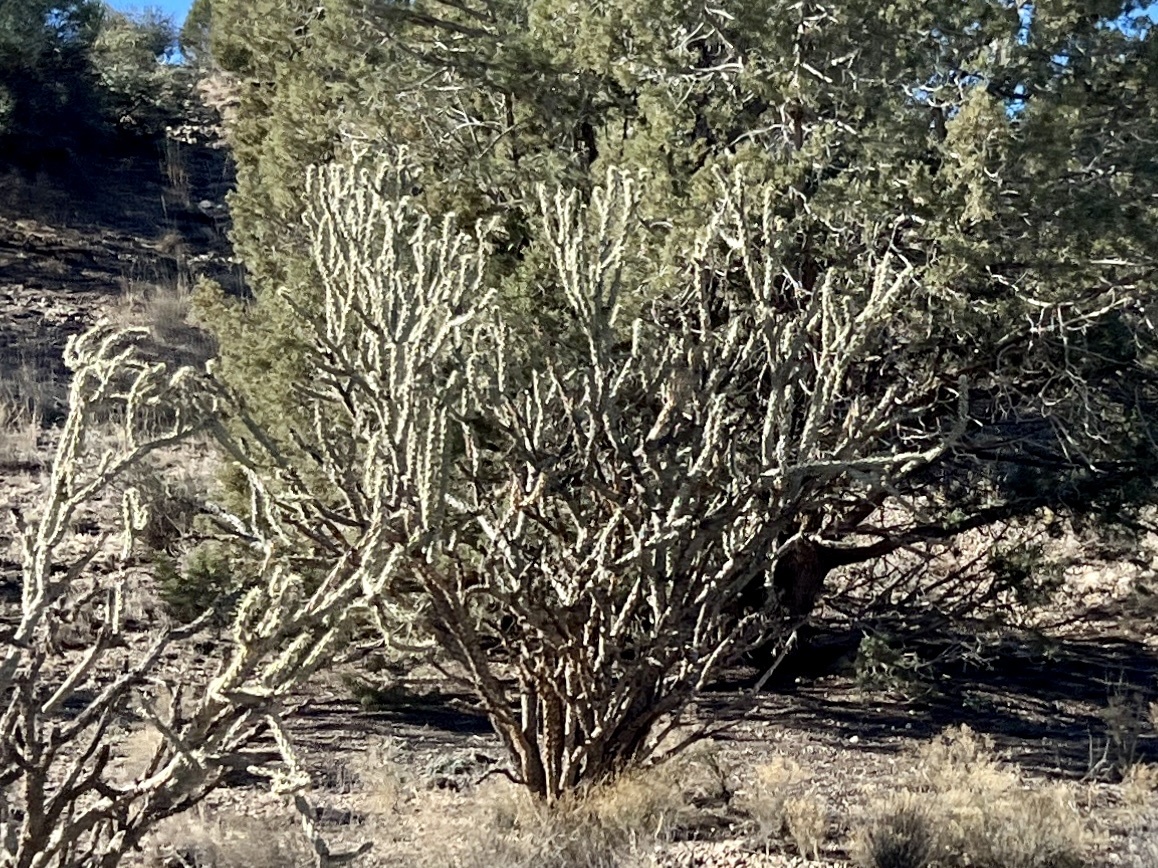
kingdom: Plantae
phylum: Tracheophyta
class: Magnoliopsida
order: Caryophyllales
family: Cactaceae
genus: Cylindropuntia
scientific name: Cylindropuntia acanthocarpa
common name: Buckhorn cholla
